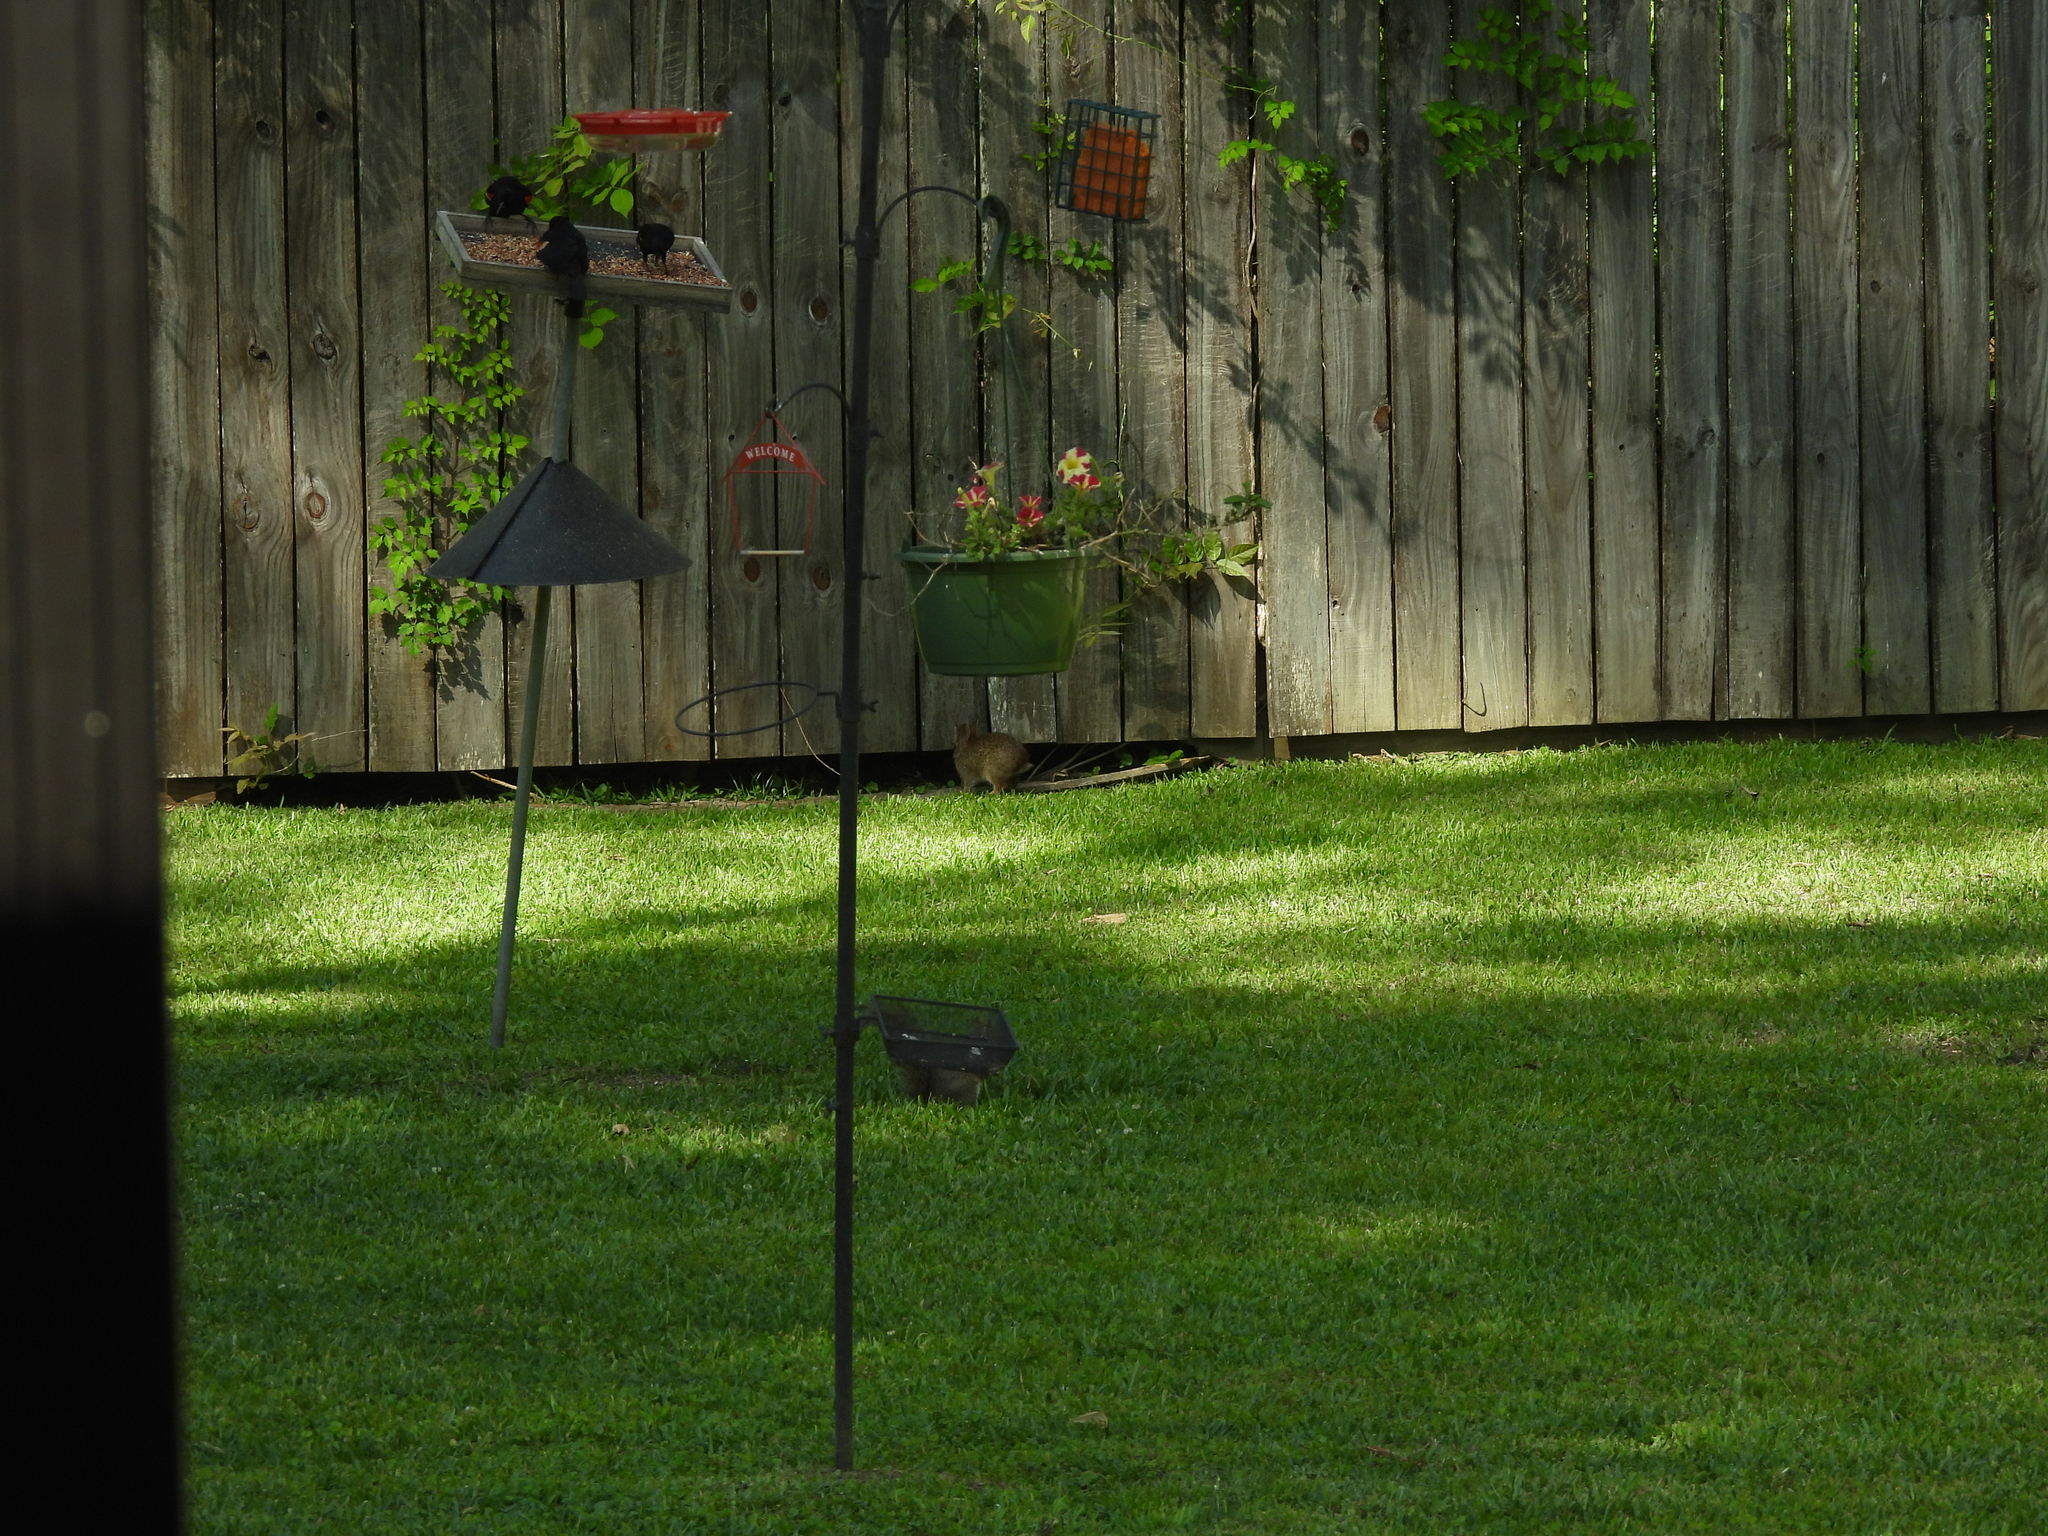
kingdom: Animalia
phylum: Chordata
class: Mammalia
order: Lagomorpha
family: Leporidae
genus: Sylvilagus
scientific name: Sylvilagus aquaticus
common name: Swamp rabbit
